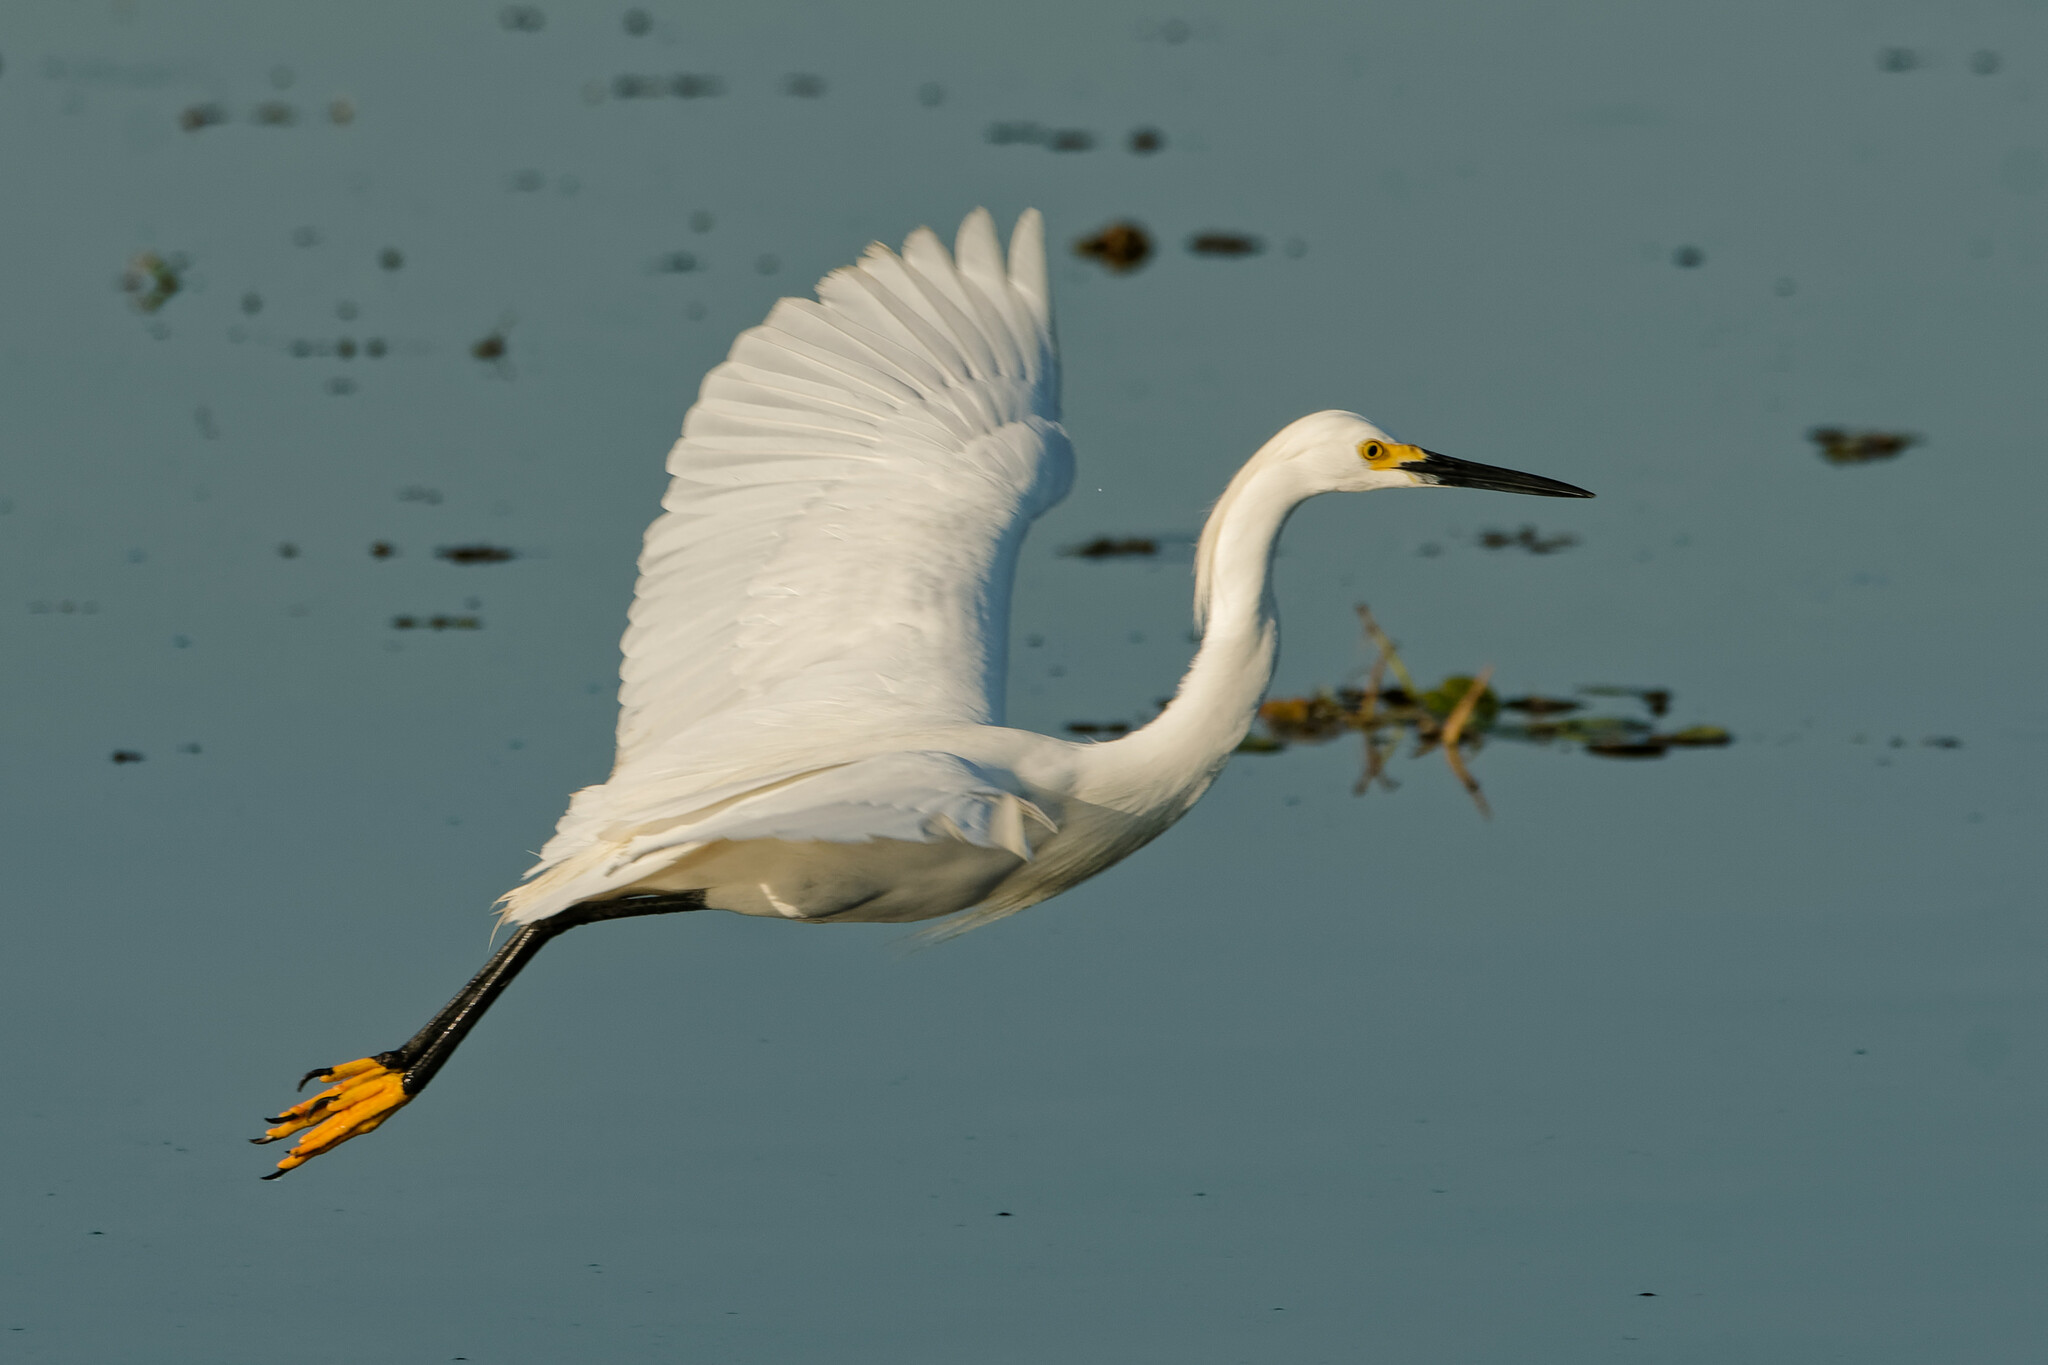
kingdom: Animalia
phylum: Chordata
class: Aves
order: Pelecaniformes
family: Ardeidae
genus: Egretta
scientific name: Egretta thula
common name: Snowy egret
